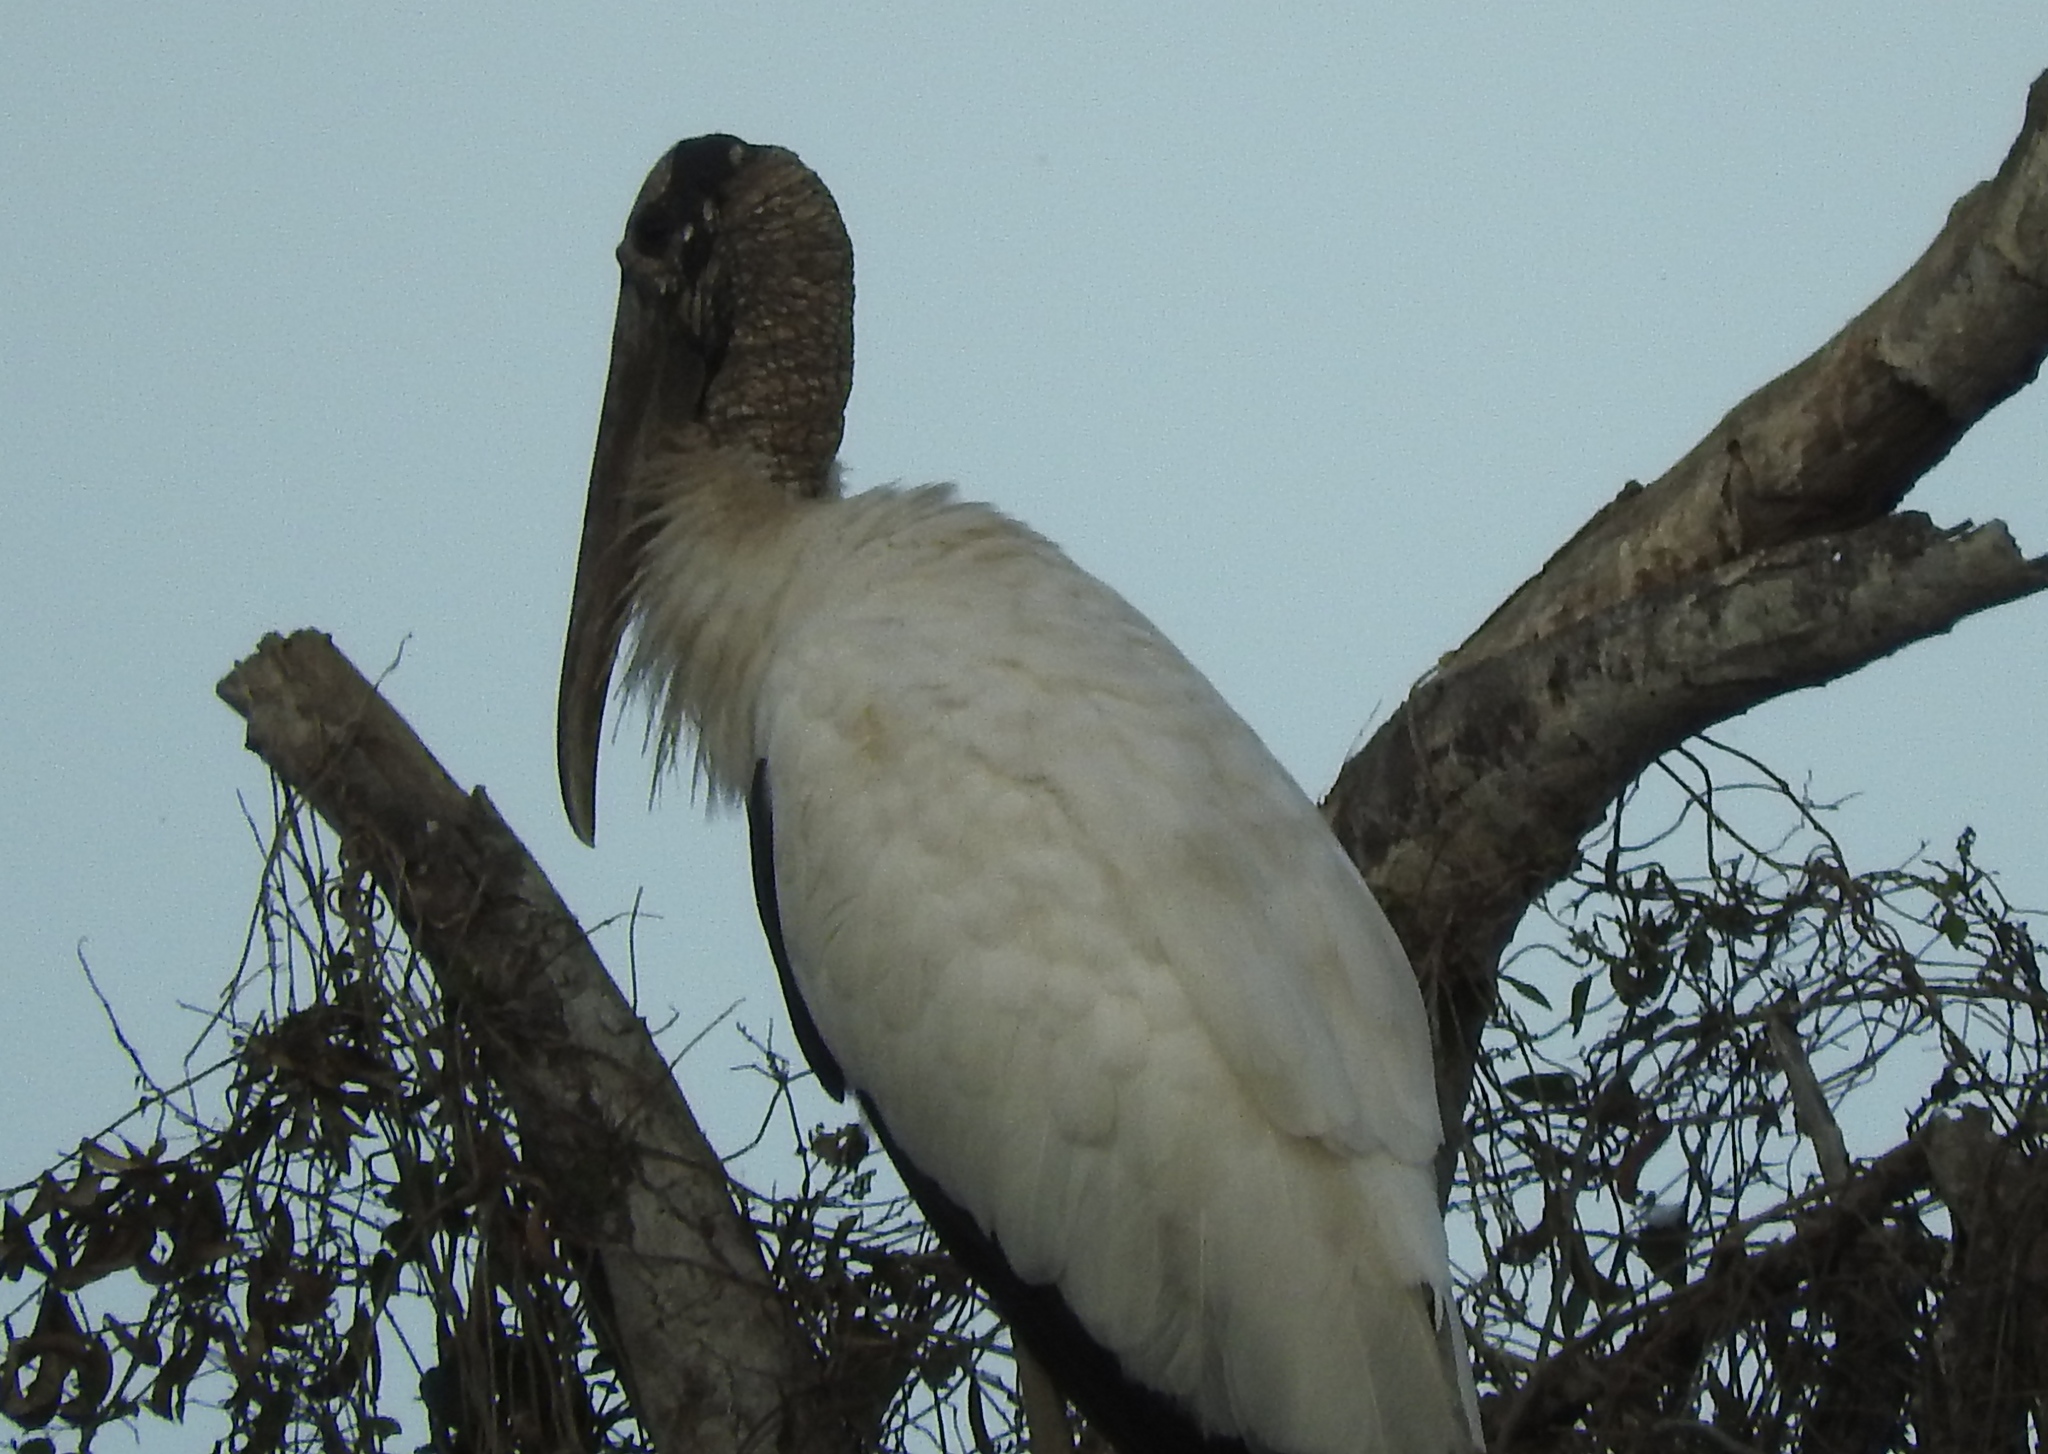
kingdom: Animalia
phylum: Chordata
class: Aves
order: Ciconiiformes
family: Ciconiidae
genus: Mycteria
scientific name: Mycteria americana
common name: Wood stork
